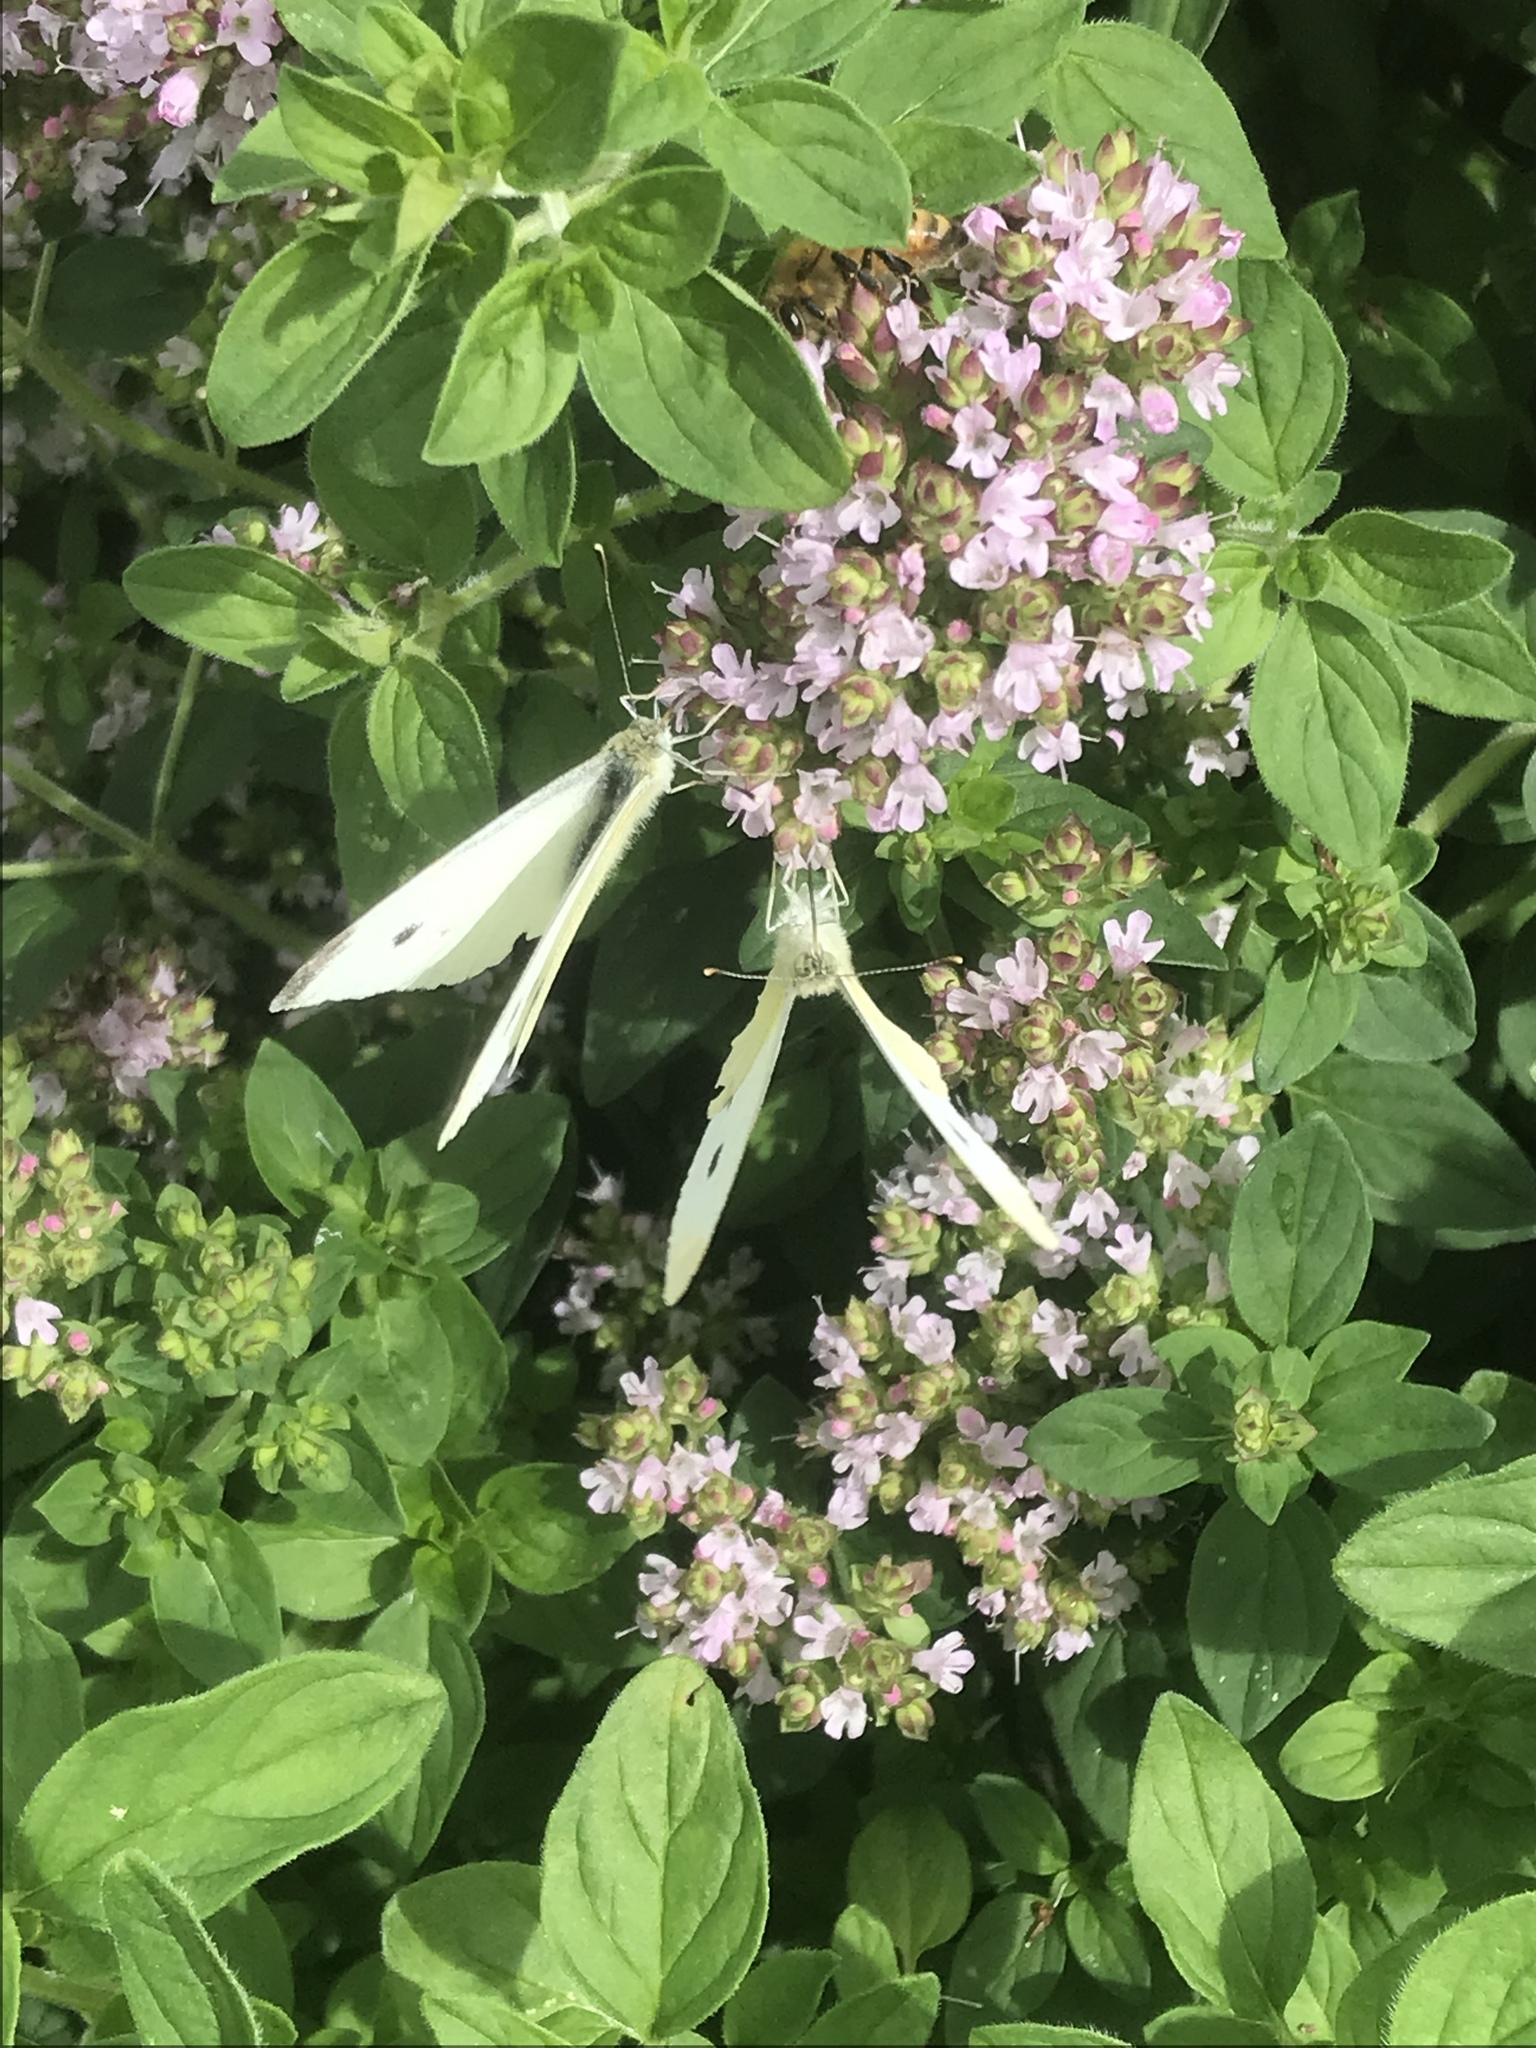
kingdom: Animalia
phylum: Arthropoda
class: Insecta
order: Lepidoptera
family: Pieridae
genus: Pieris
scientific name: Pieris rapae
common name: Small white
